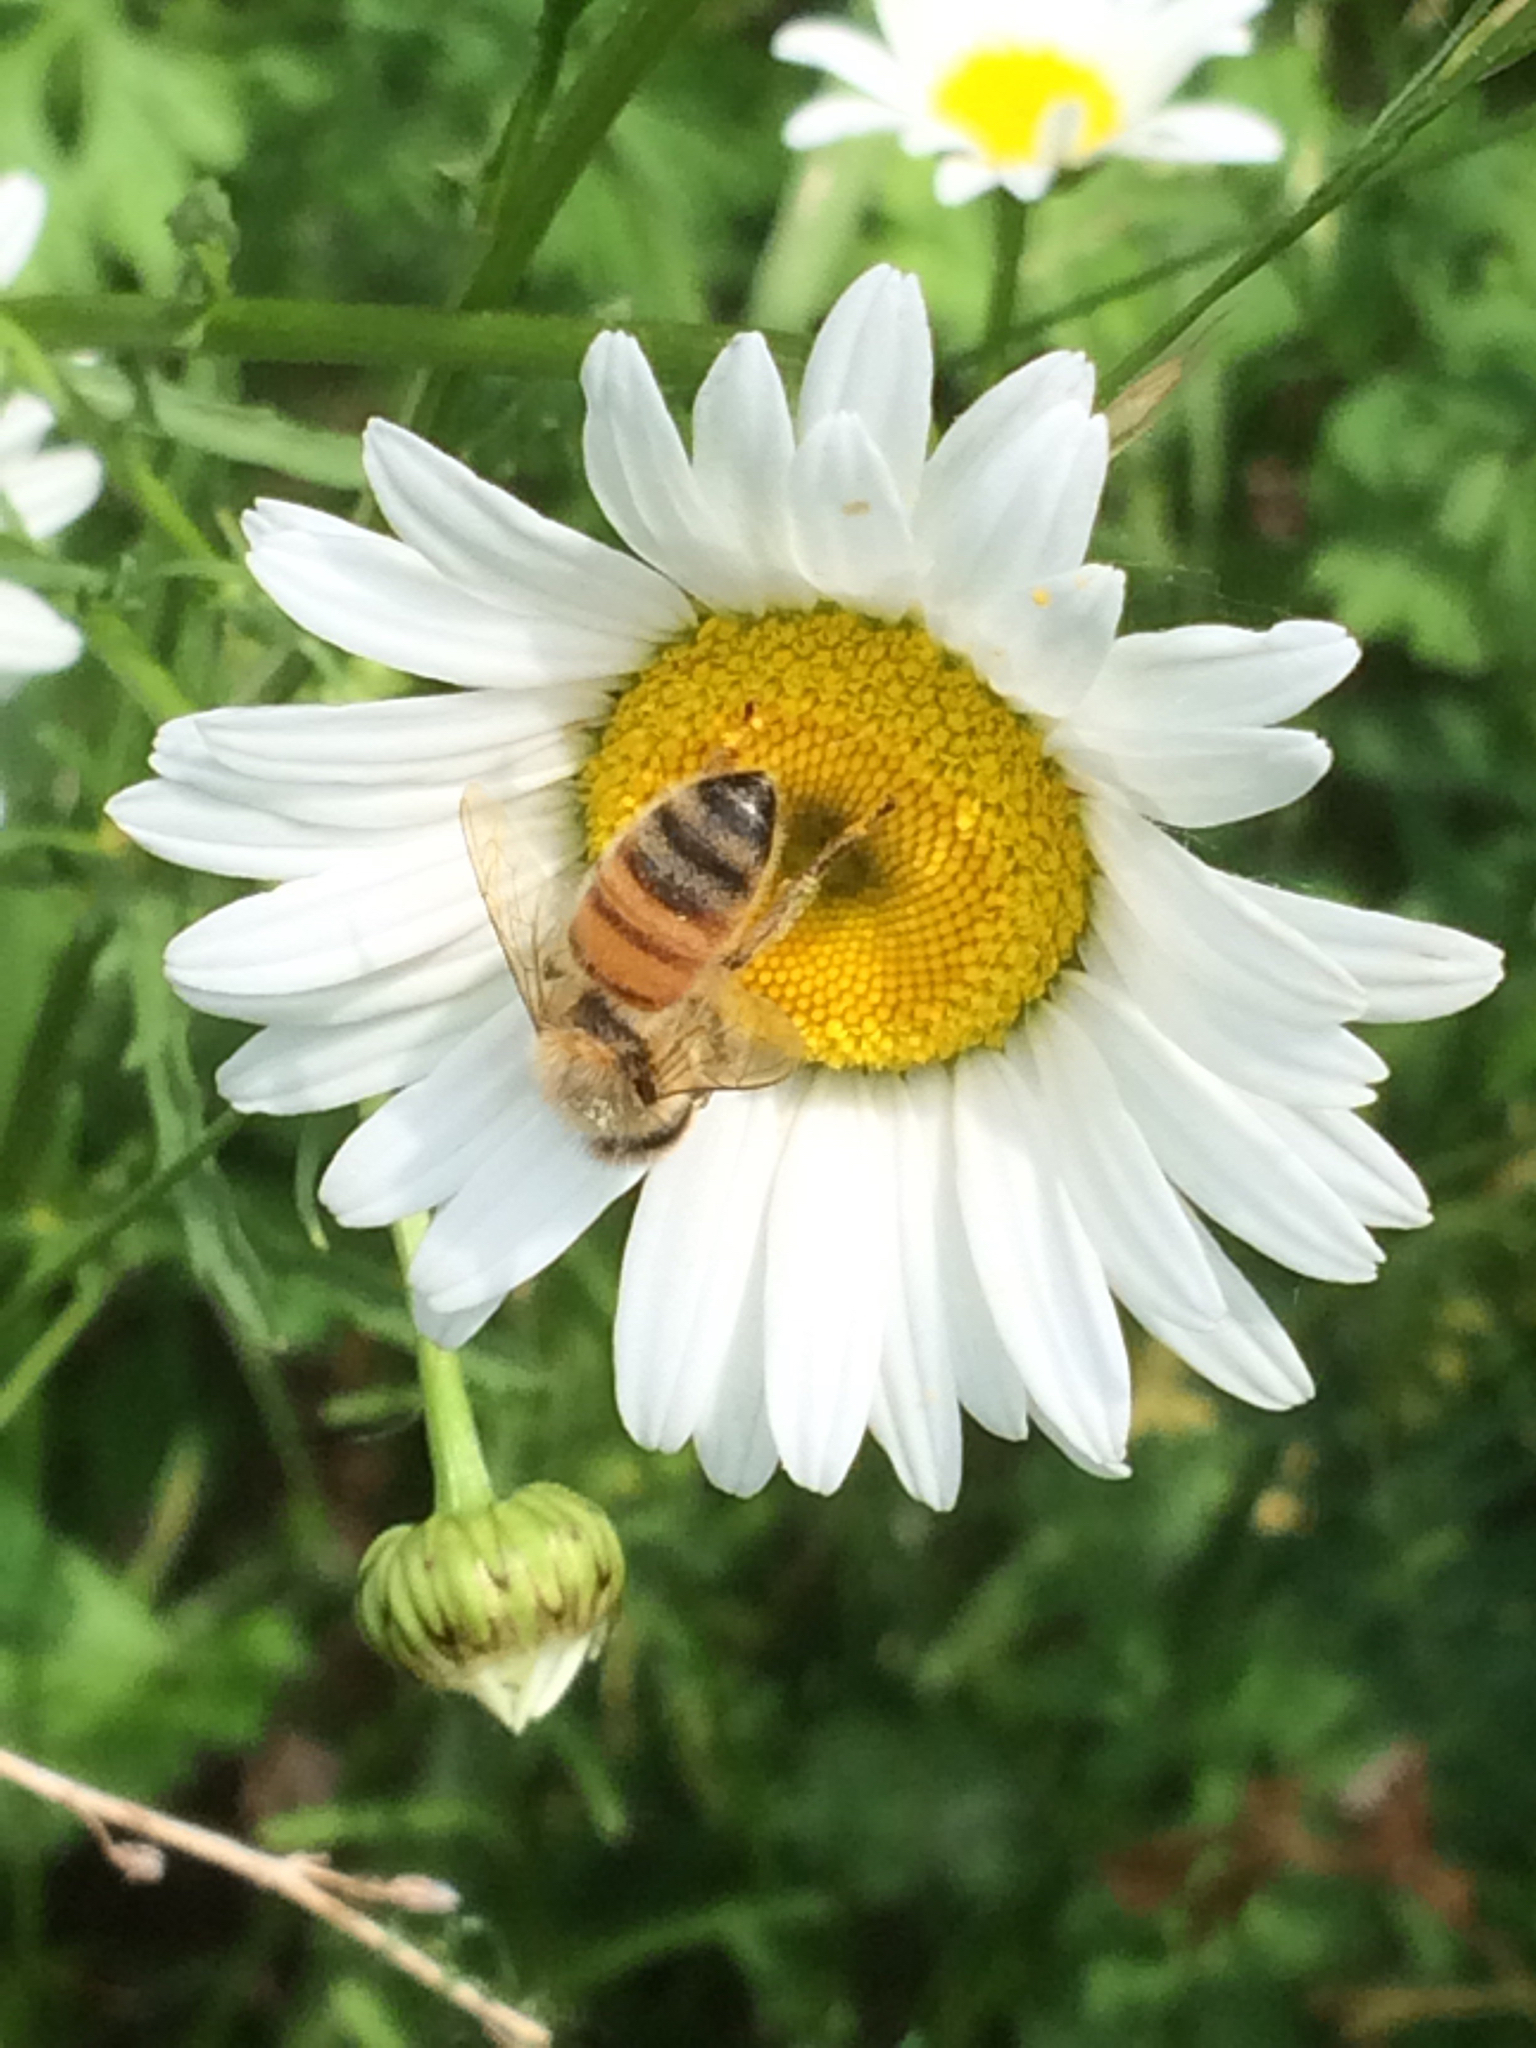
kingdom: Animalia
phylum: Arthropoda
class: Insecta
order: Hymenoptera
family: Apidae
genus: Apis
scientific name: Apis mellifera
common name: Honey bee
